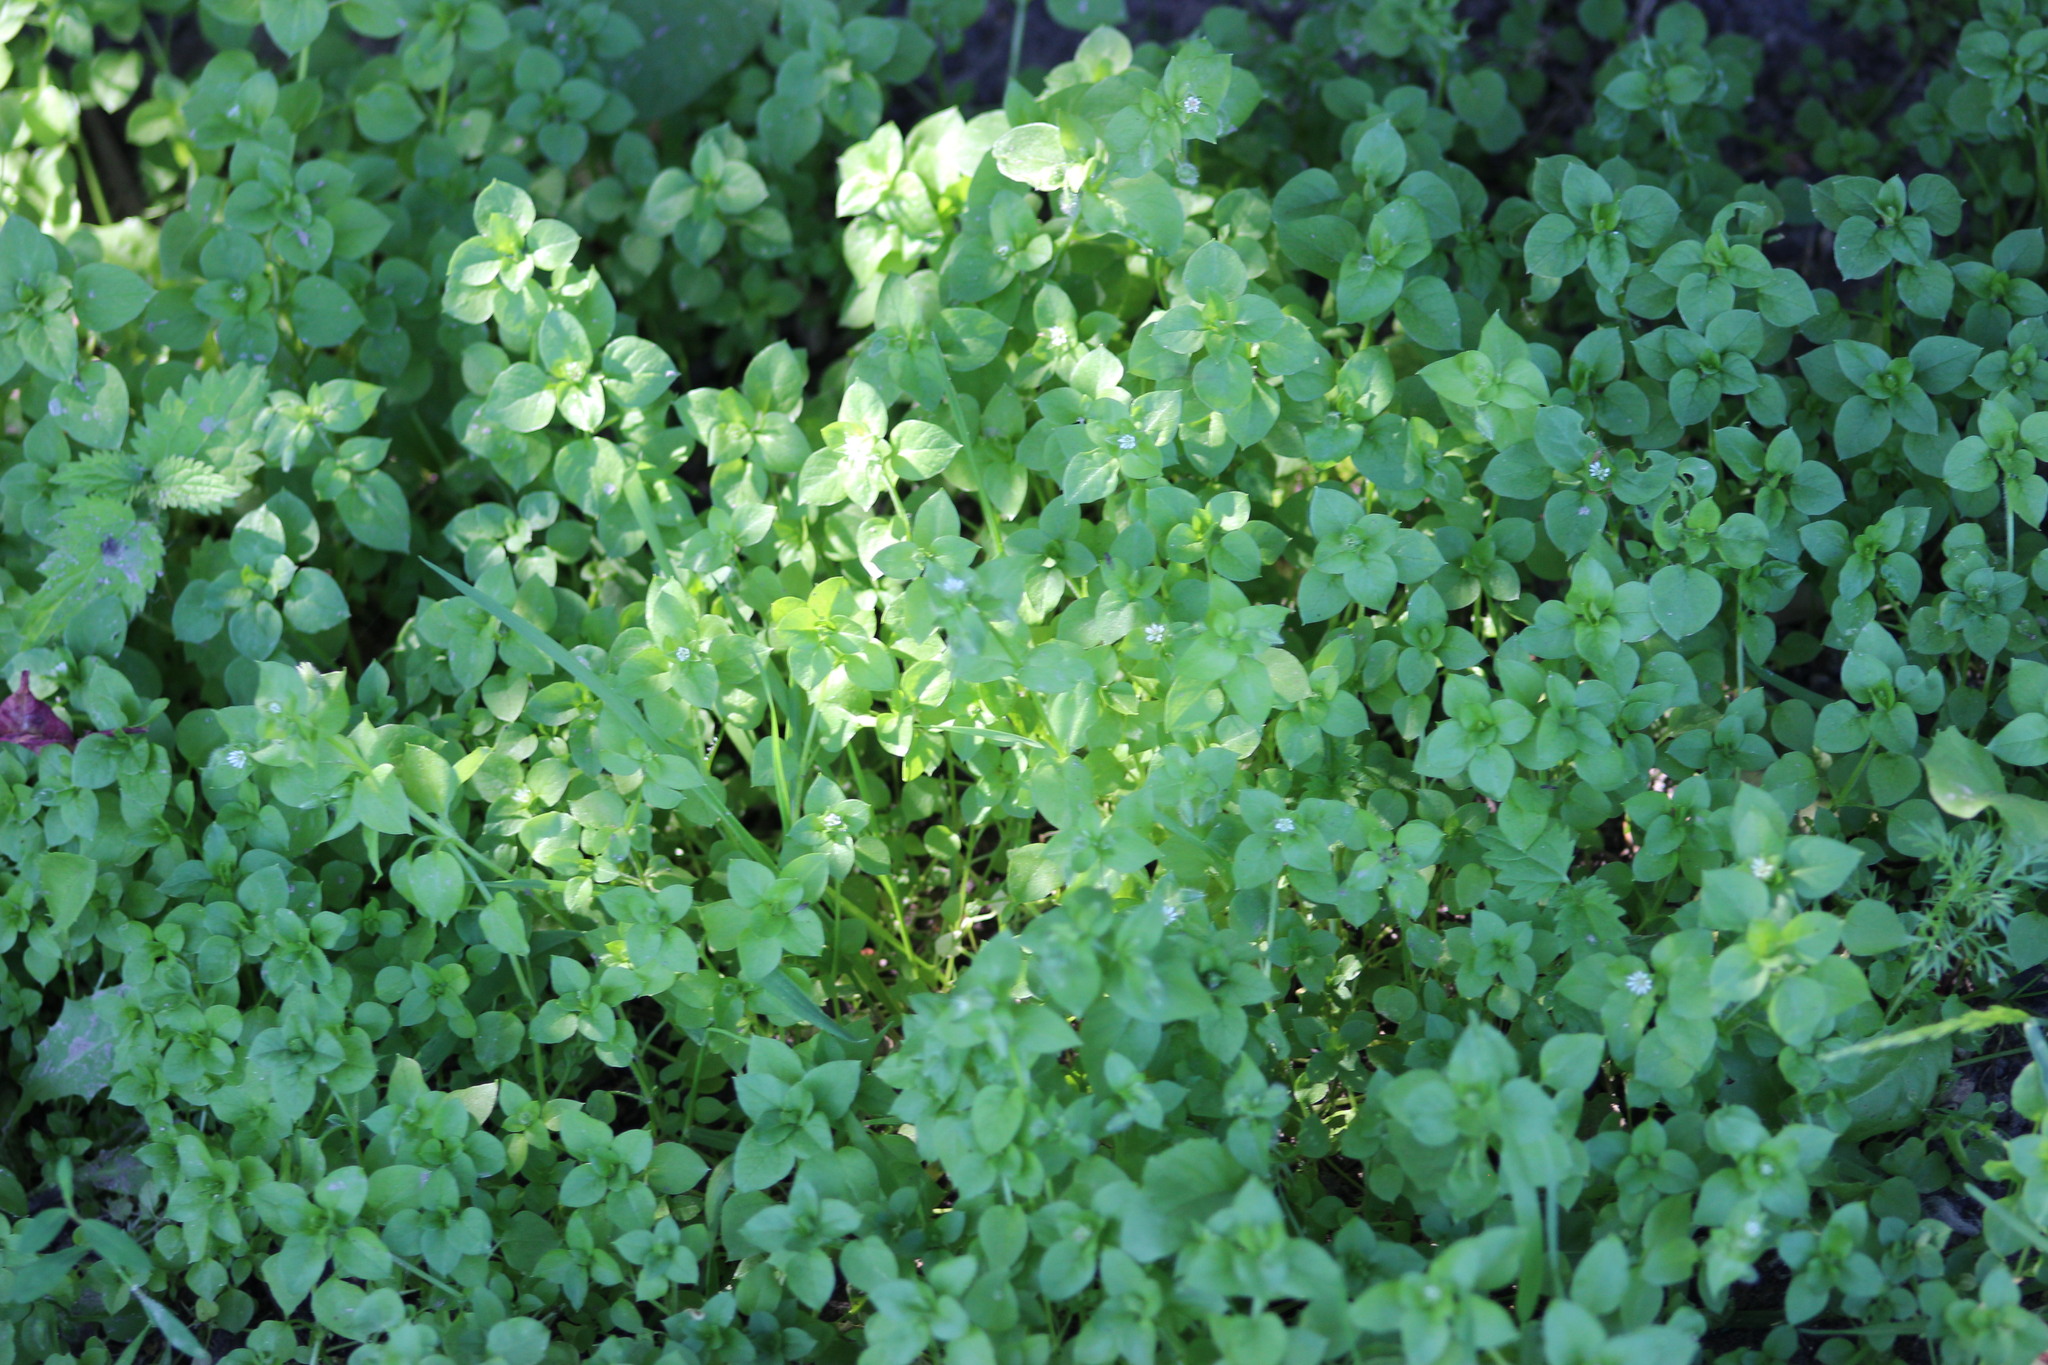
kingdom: Plantae
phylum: Tracheophyta
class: Magnoliopsida
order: Caryophyllales
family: Caryophyllaceae
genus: Stellaria
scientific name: Stellaria media
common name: Common chickweed
